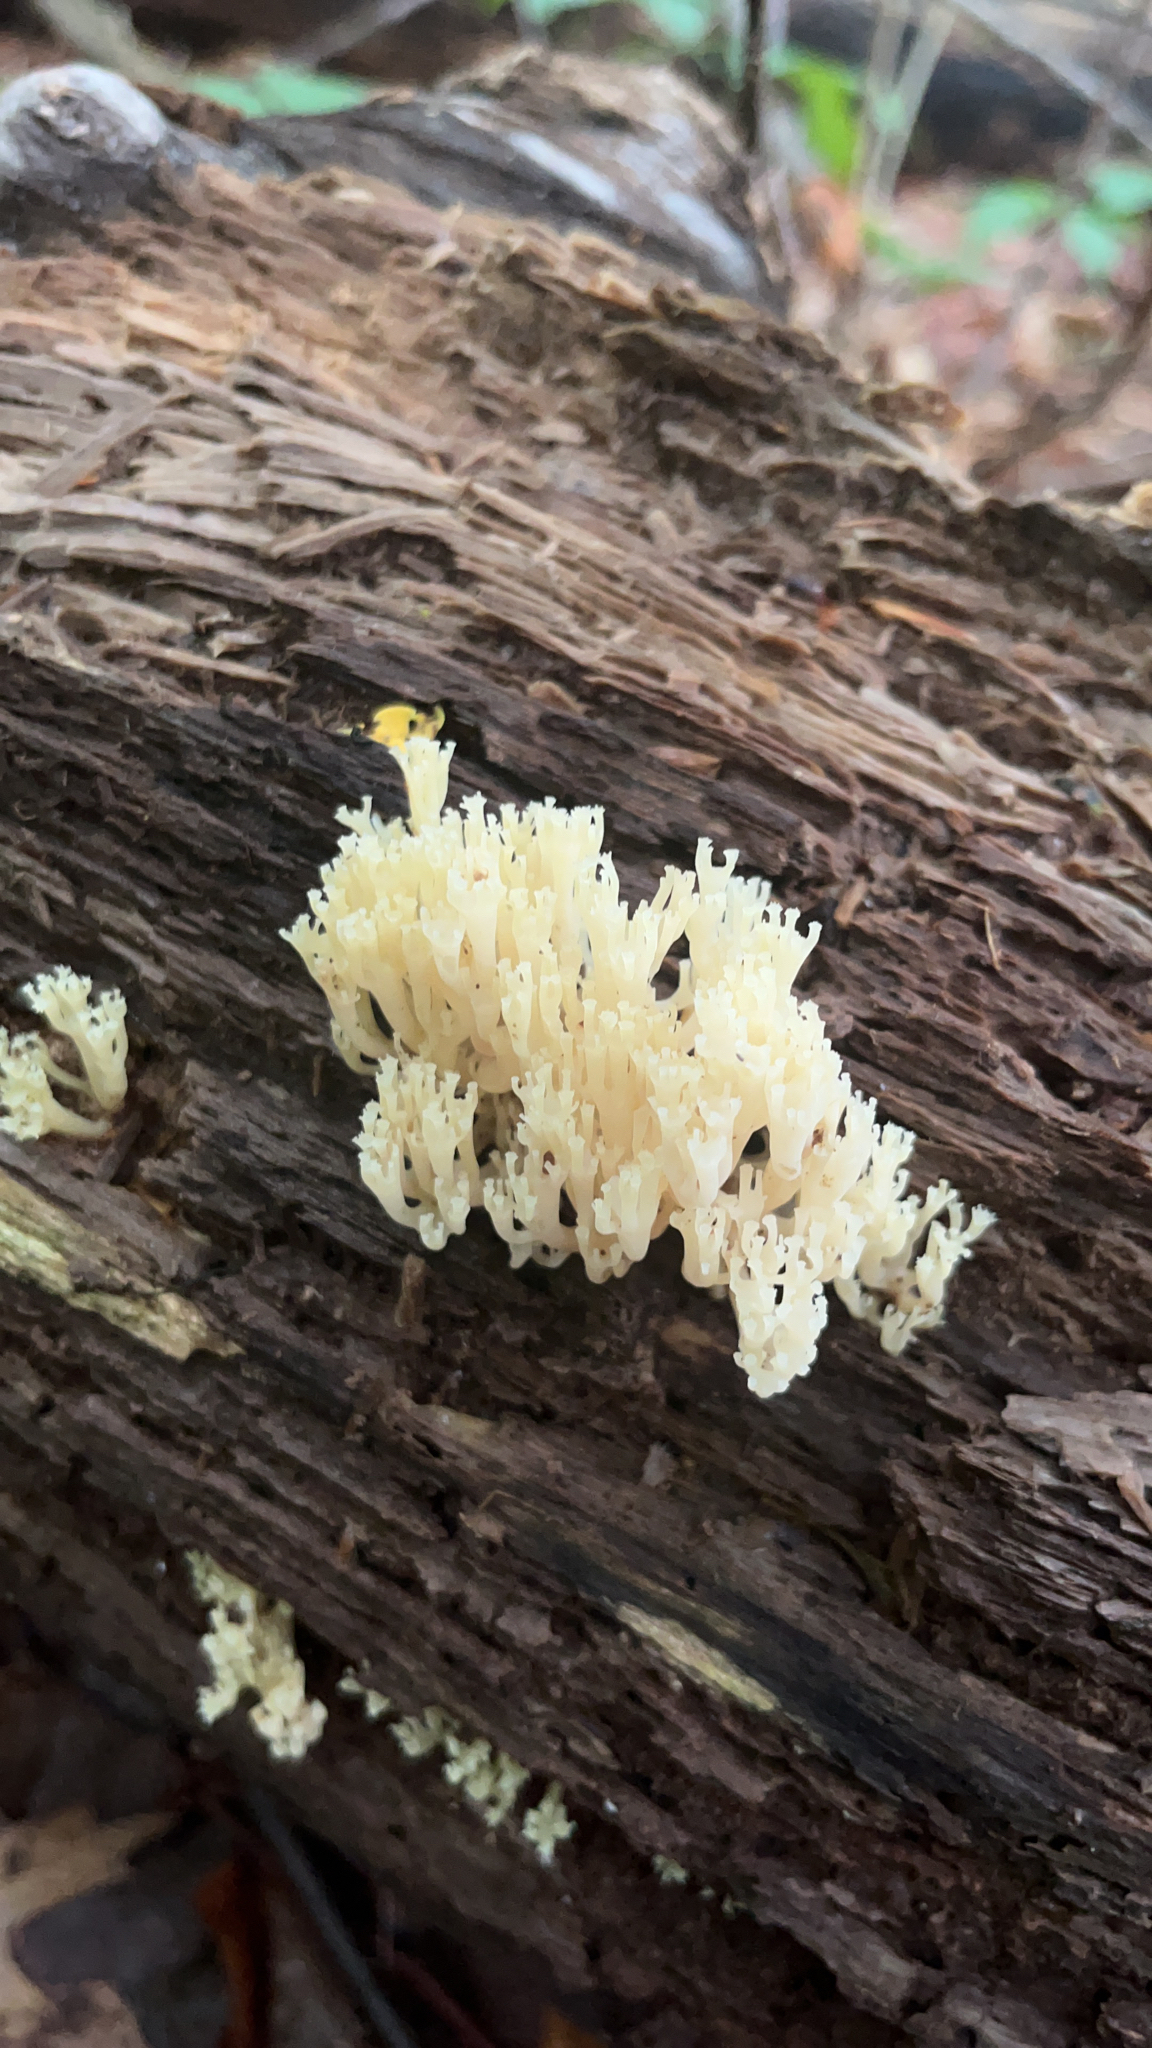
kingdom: Fungi
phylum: Basidiomycota
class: Agaricomycetes
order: Russulales
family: Auriscalpiaceae
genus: Artomyces
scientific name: Artomyces pyxidatus
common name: Crown-tipped coral fungus
